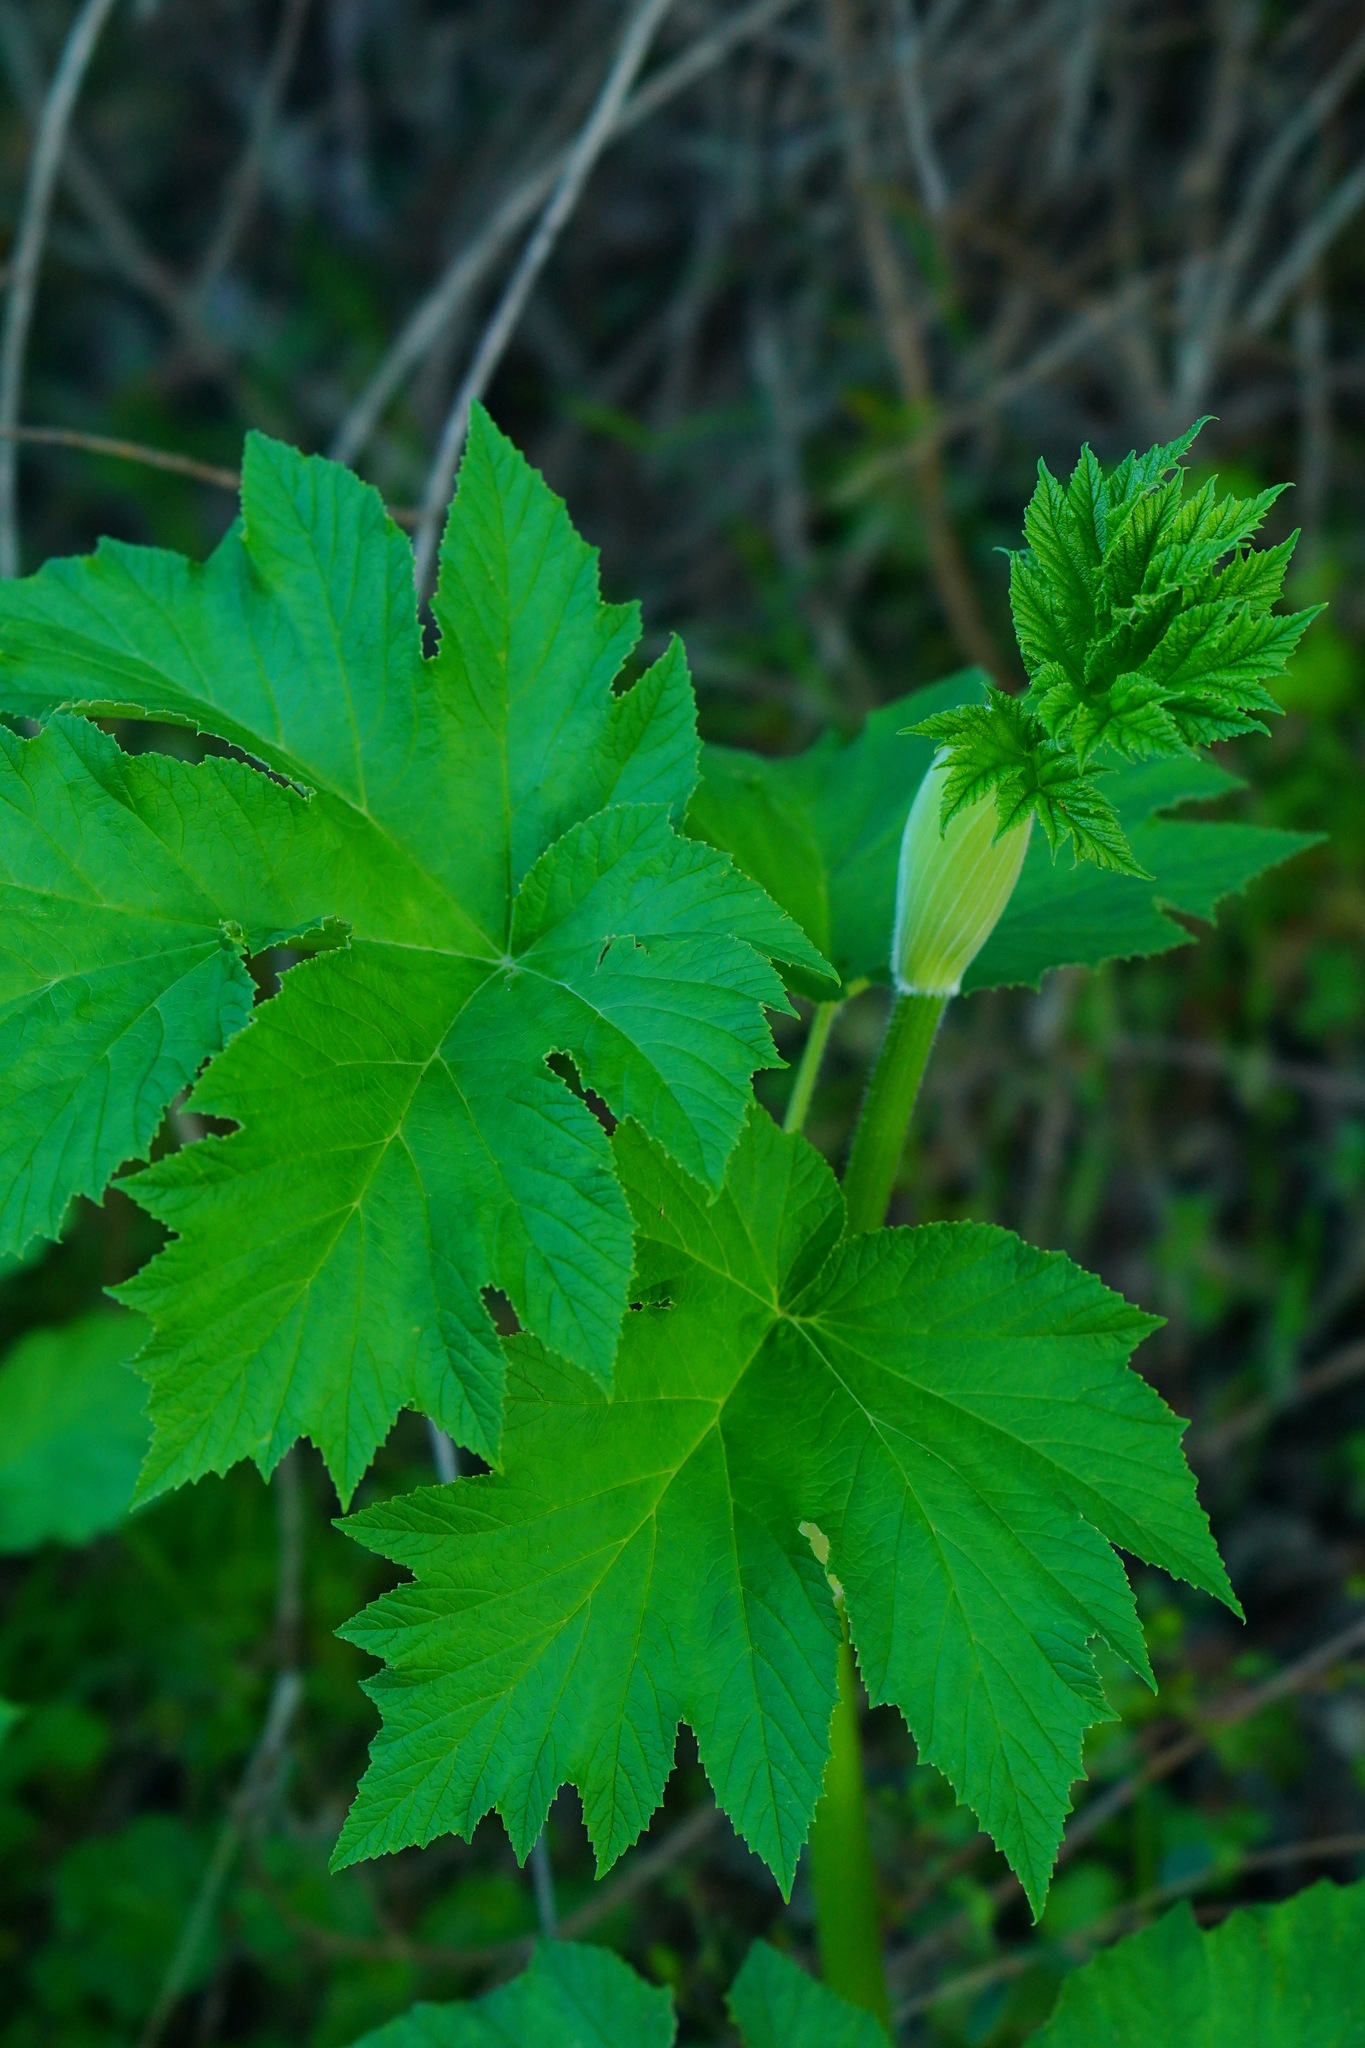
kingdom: Plantae
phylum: Tracheophyta
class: Magnoliopsida
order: Apiales
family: Apiaceae
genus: Heracleum
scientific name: Heracleum maximum
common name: American cow parsnip
